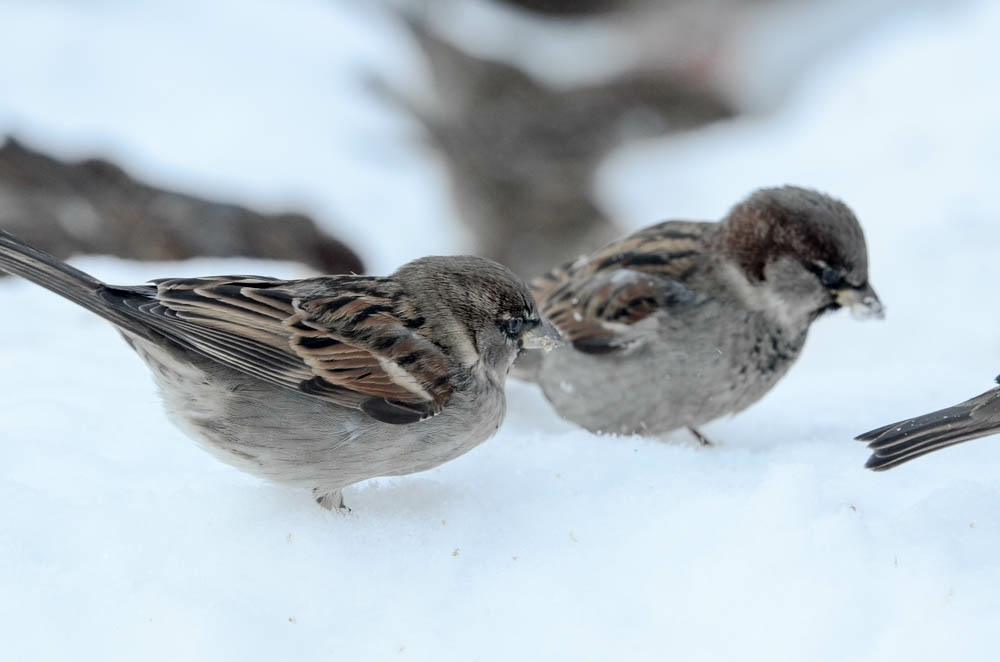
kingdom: Animalia
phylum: Chordata
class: Aves
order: Passeriformes
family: Passeridae
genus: Passer
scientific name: Passer domesticus
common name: House sparrow
